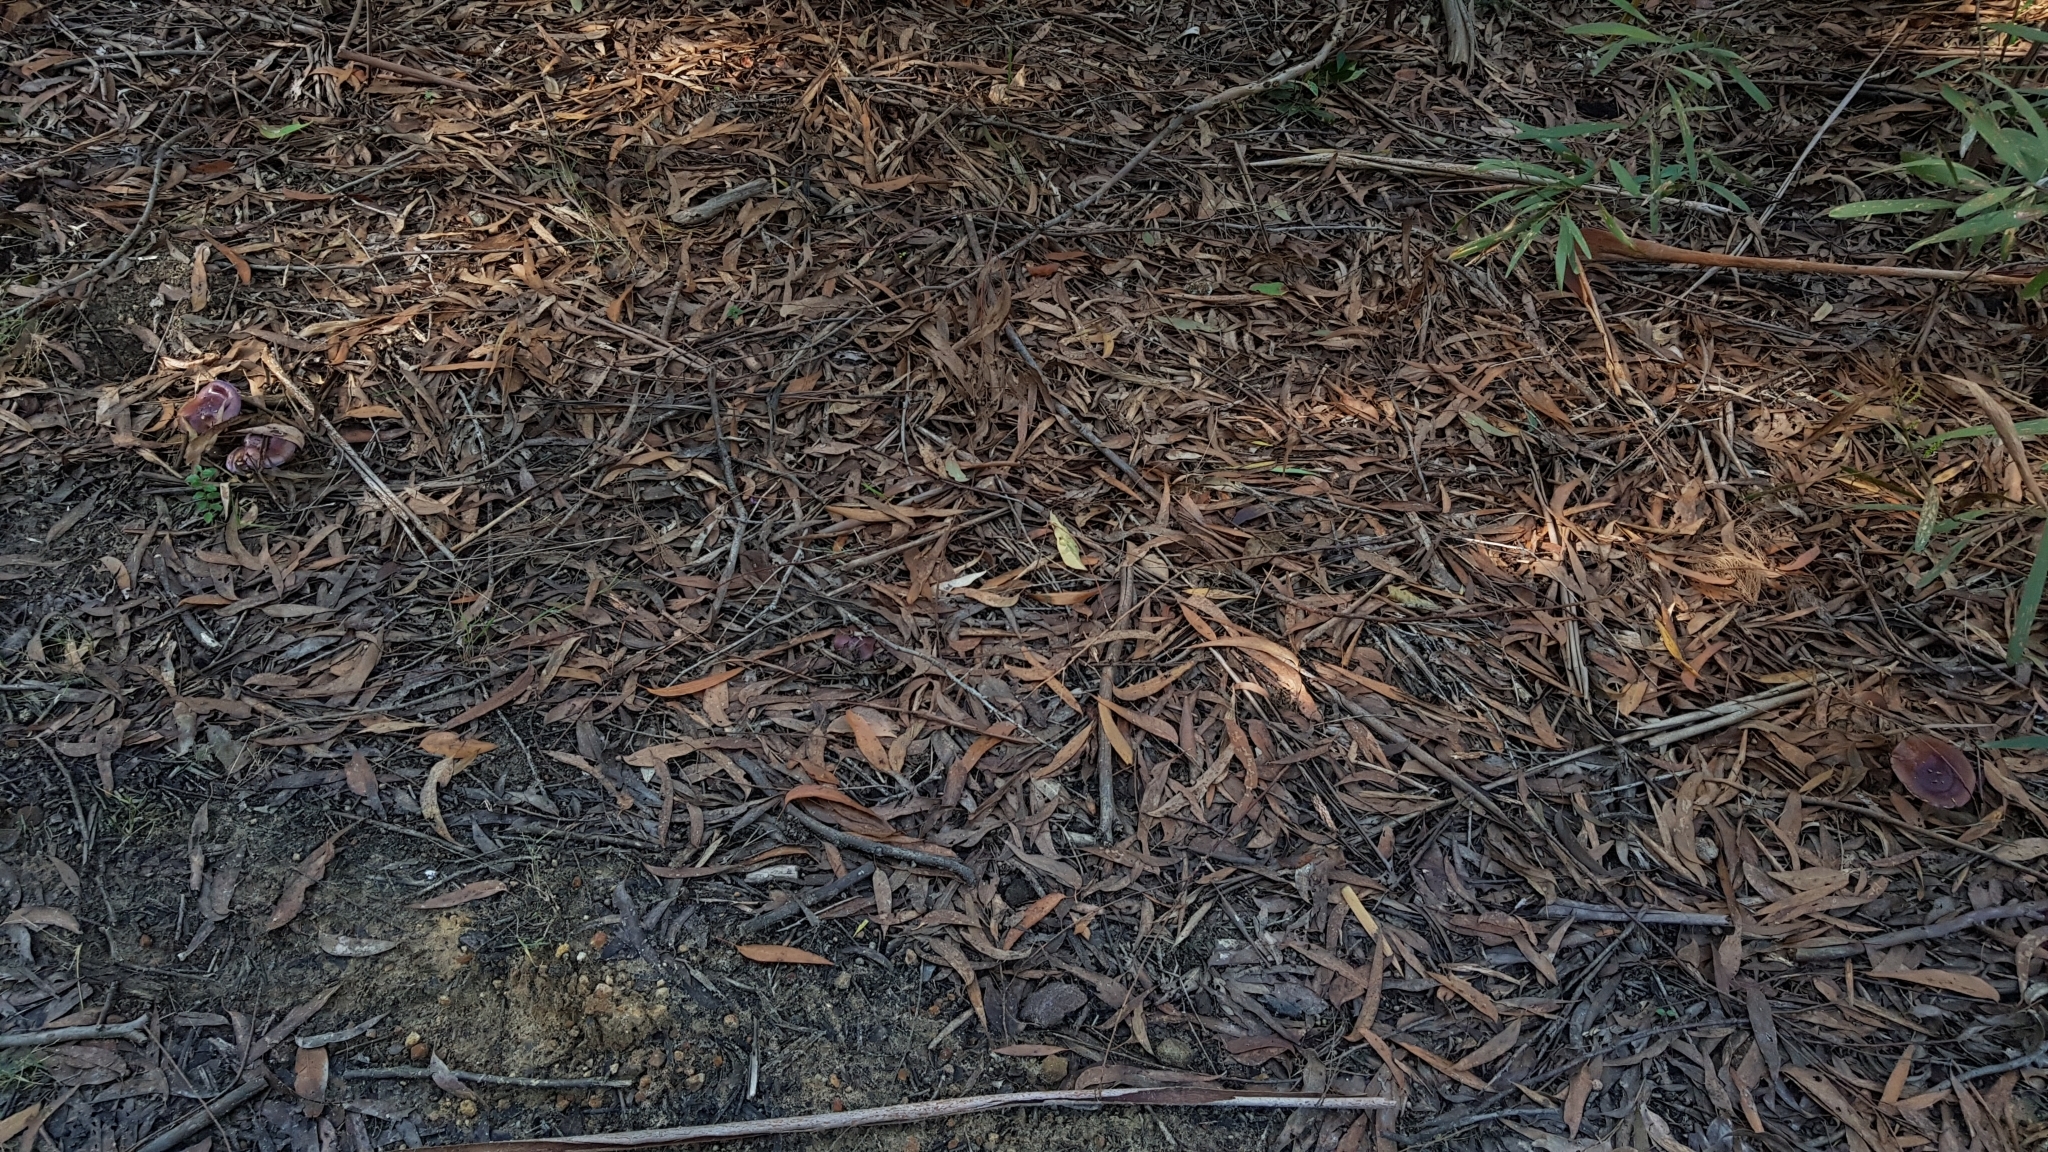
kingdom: Fungi
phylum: Basidiomycota
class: Agaricomycetes
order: Agaricales
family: Cortinariaceae
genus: Cortinarius
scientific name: Cortinarius archeri
